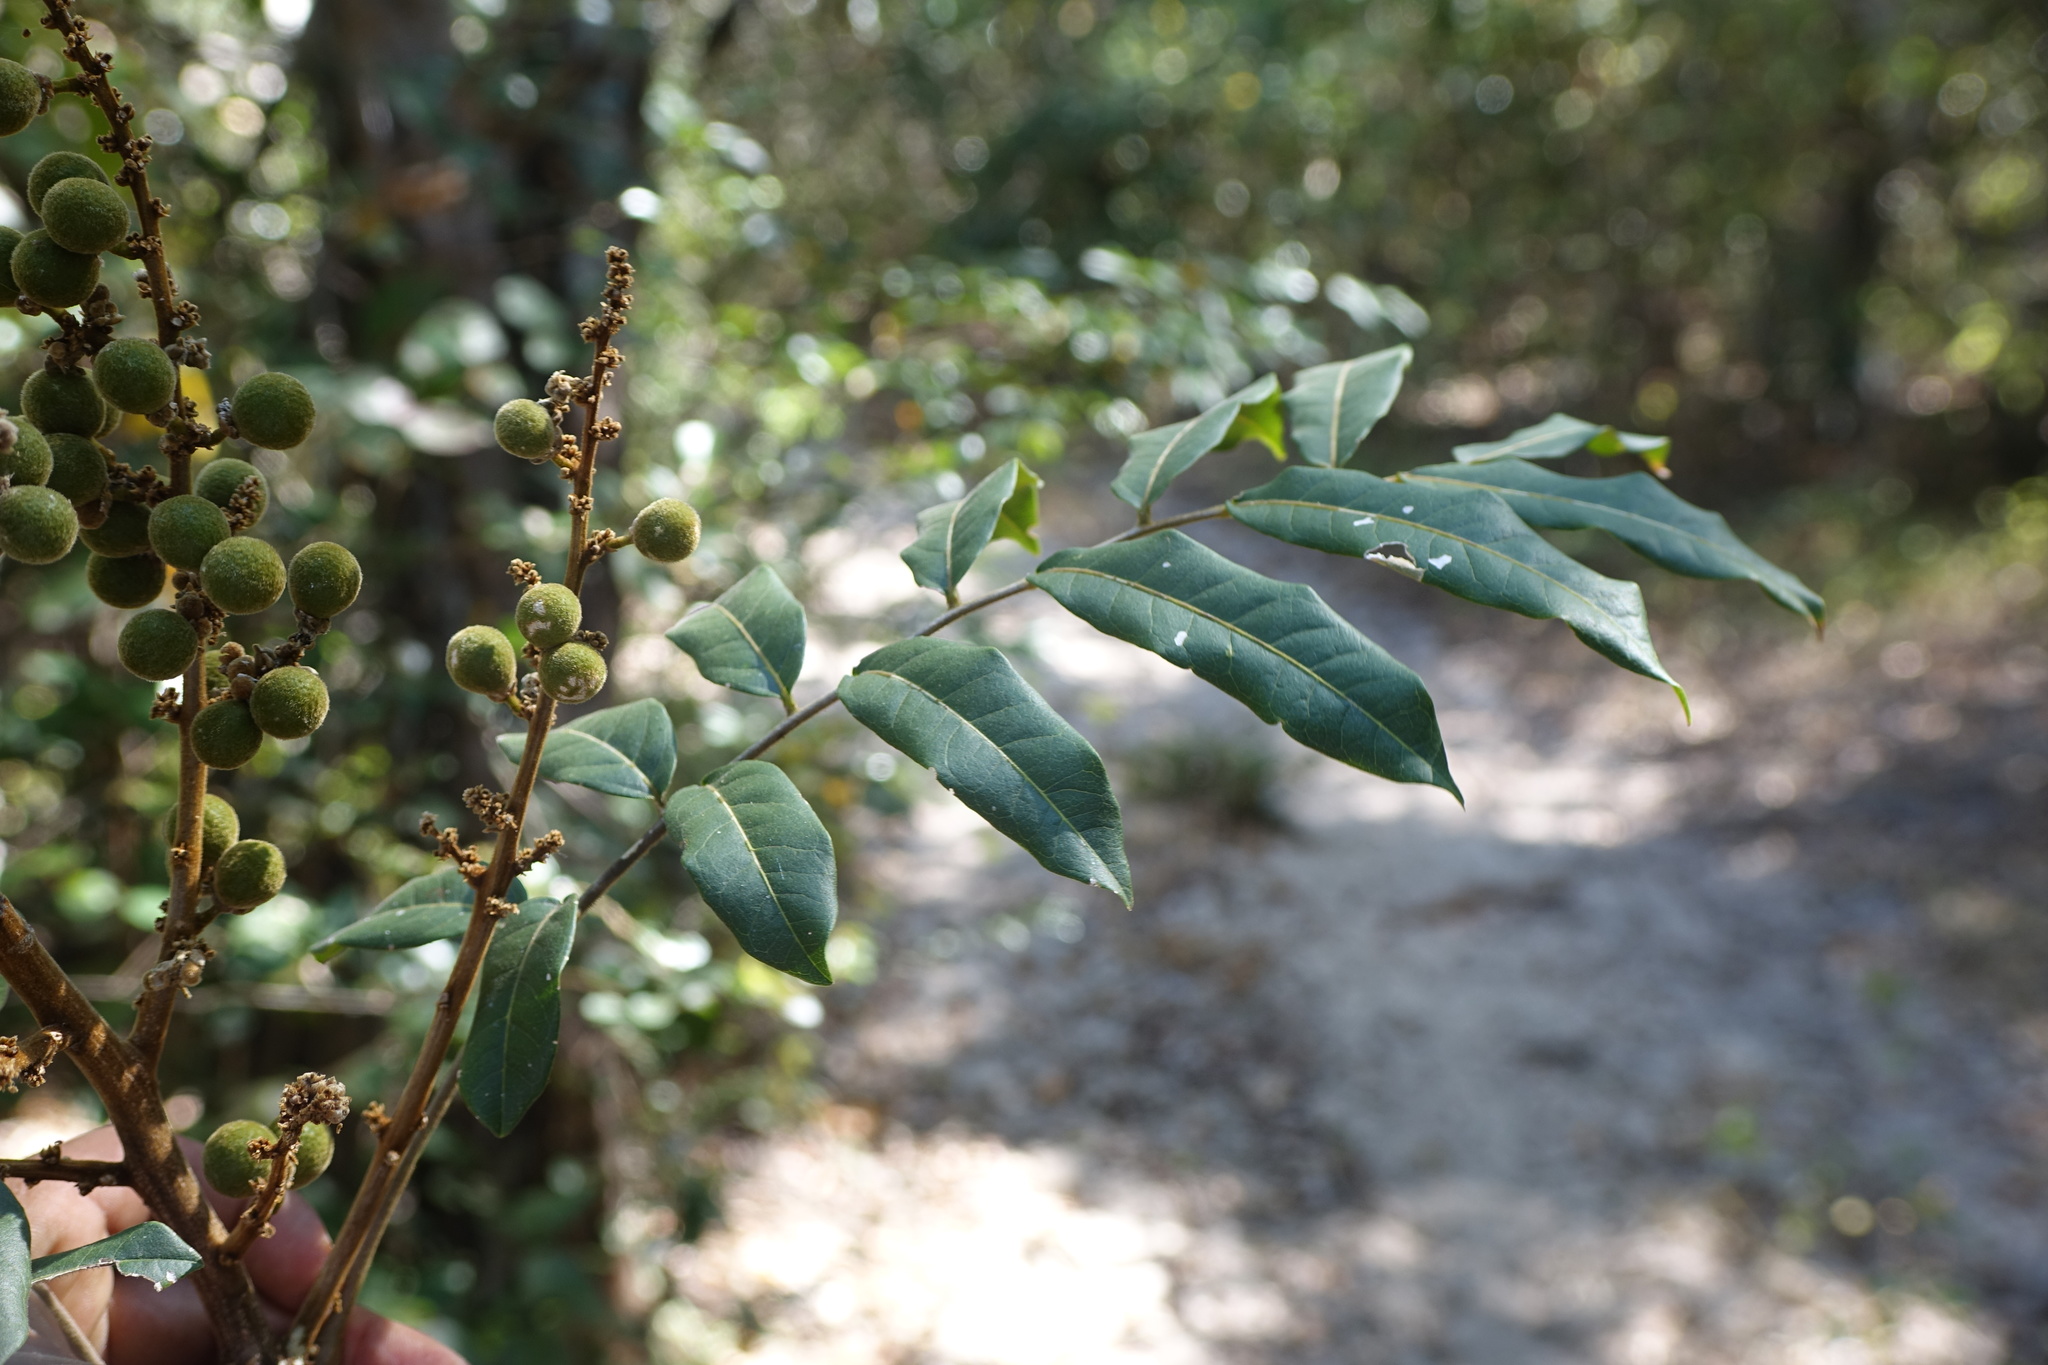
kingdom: Plantae
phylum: Tracheophyta
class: Magnoliopsida
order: Sapindales
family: Sapindaceae
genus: Deinbollia
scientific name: Deinbollia borbonica
